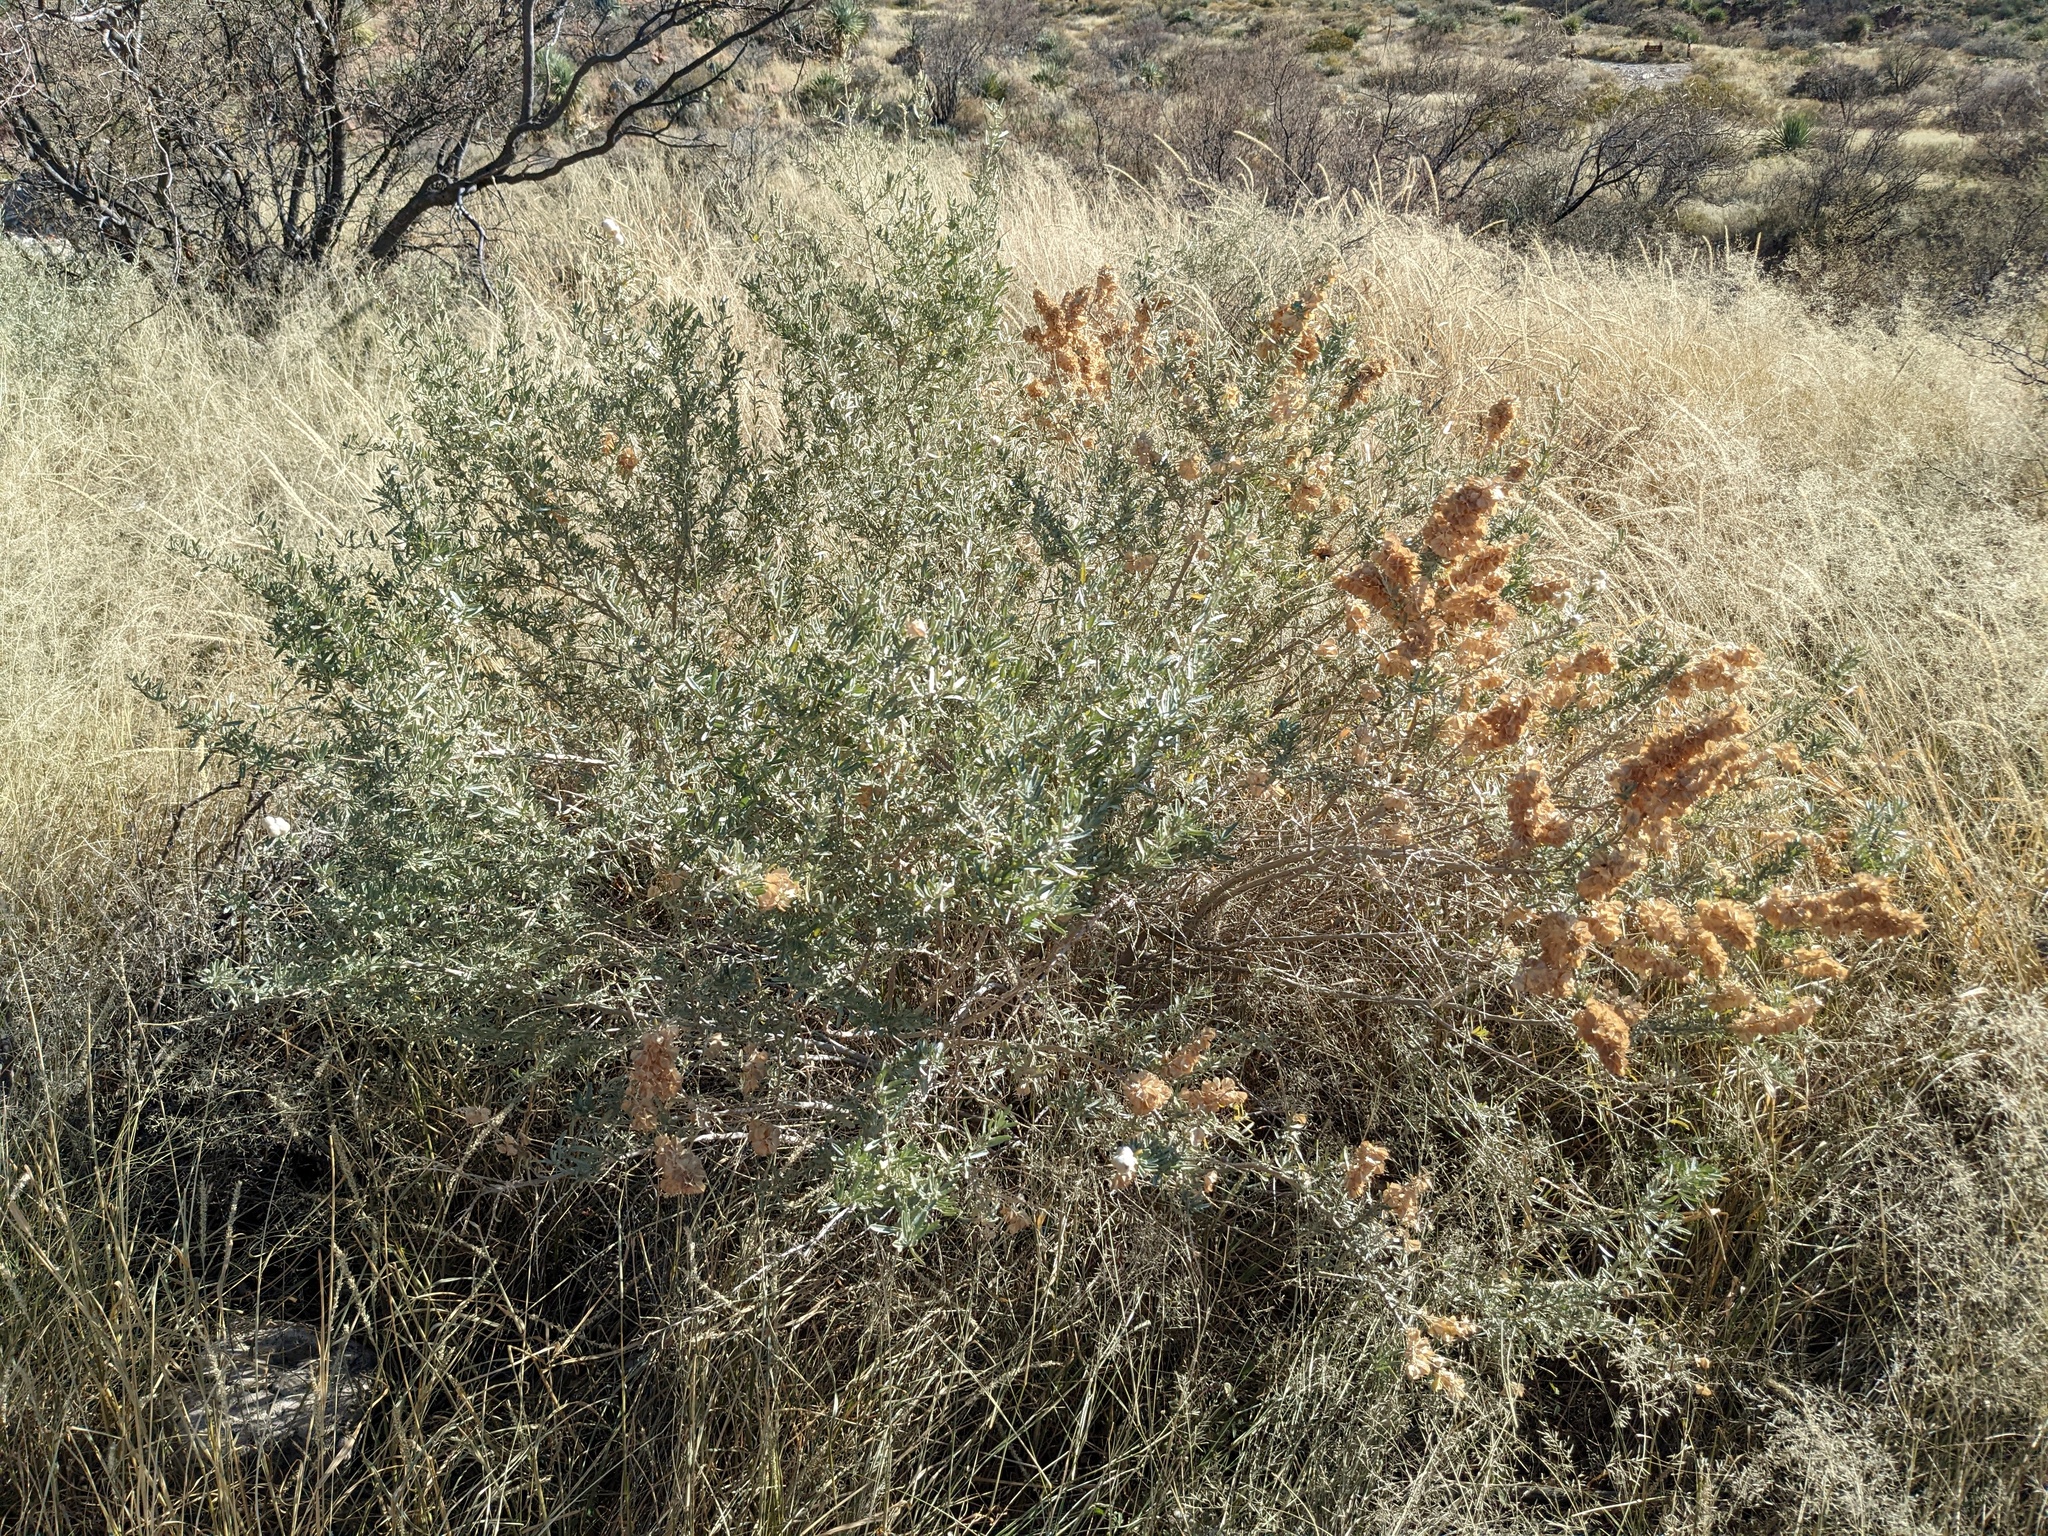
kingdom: Plantae
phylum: Tracheophyta
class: Magnoliopsida
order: Caryophyllales
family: Amaranthaceae
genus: Atriplex
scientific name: Atriplex canescens
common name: Four-wing saltbush
